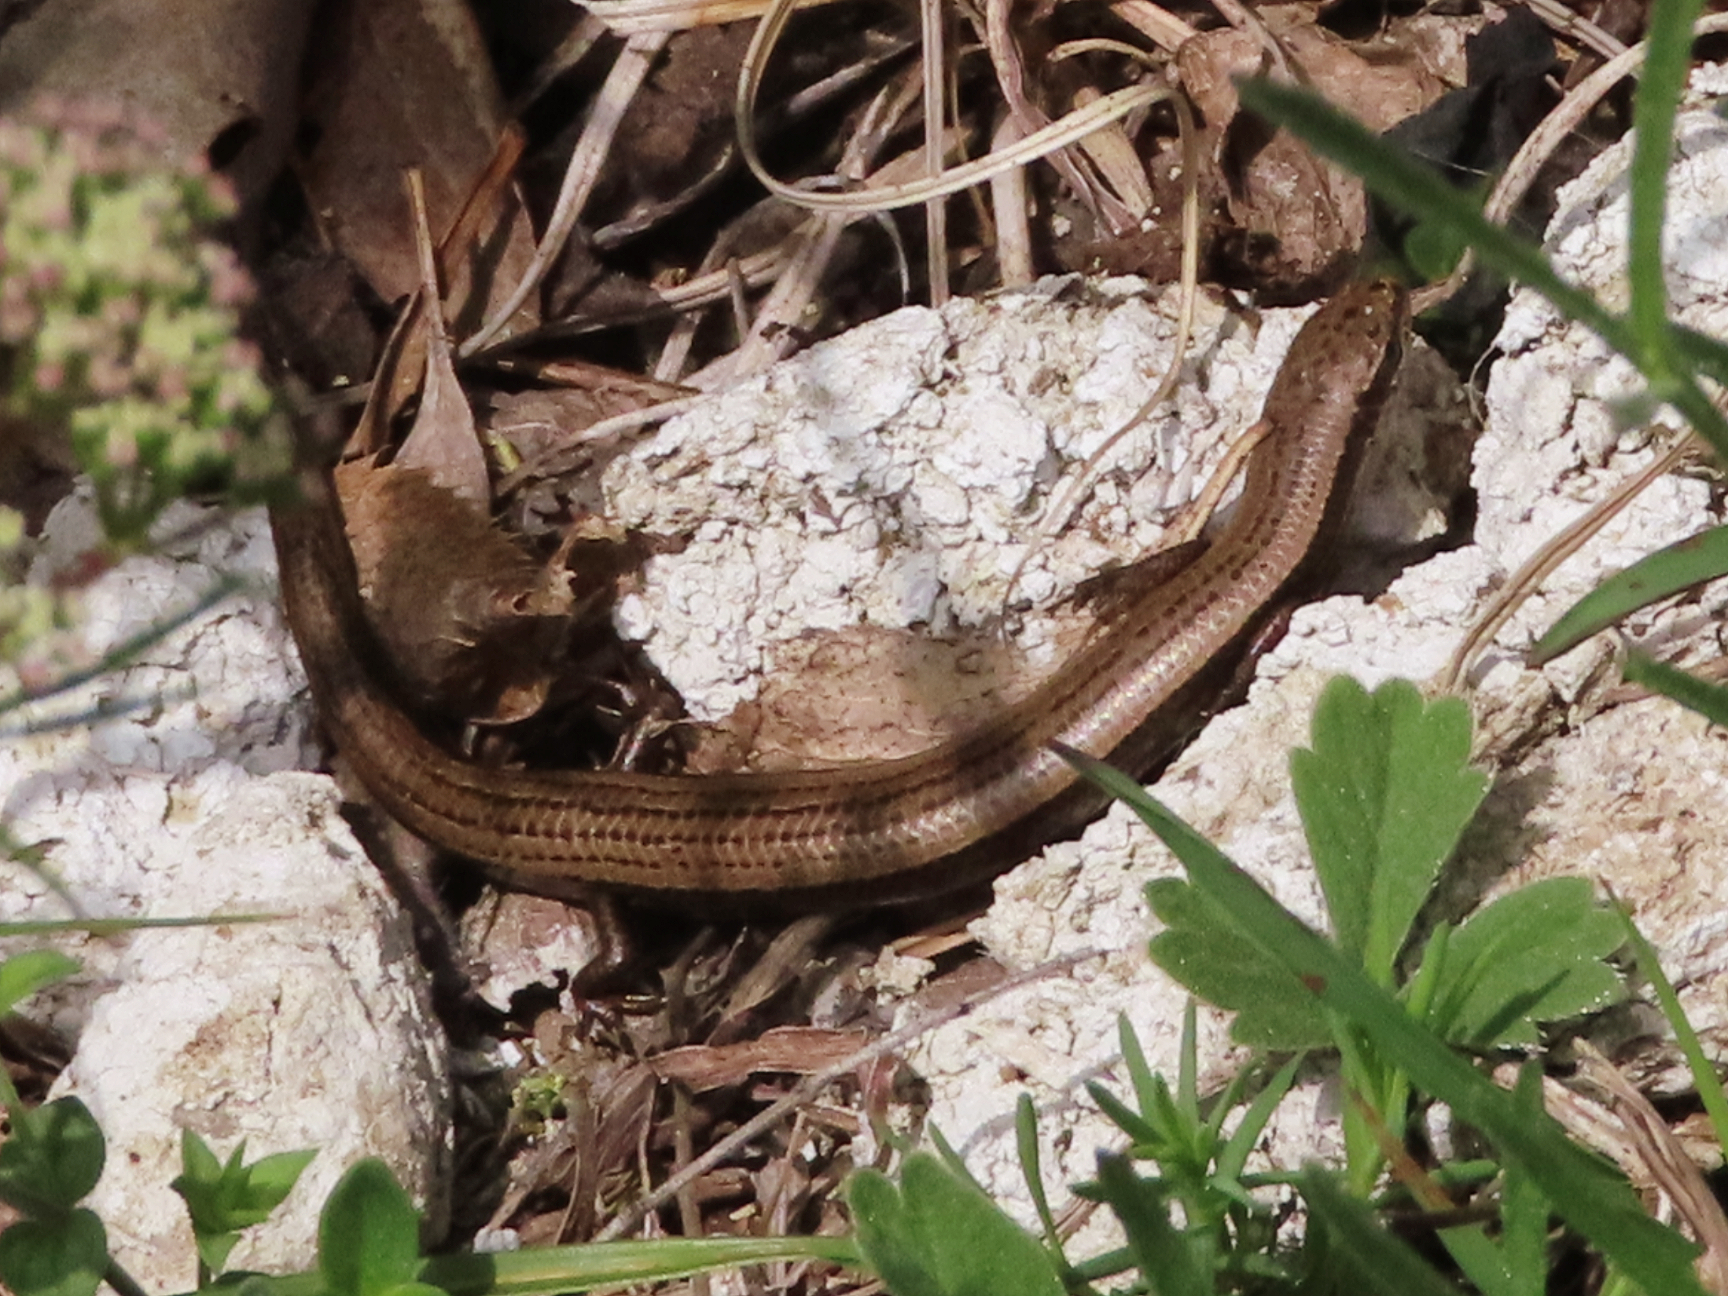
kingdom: Animalia
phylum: Chordata
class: Squamata
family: Scincidae
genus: Ablepharus
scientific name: Ablepharus kitaibelii
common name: Juniper skink
